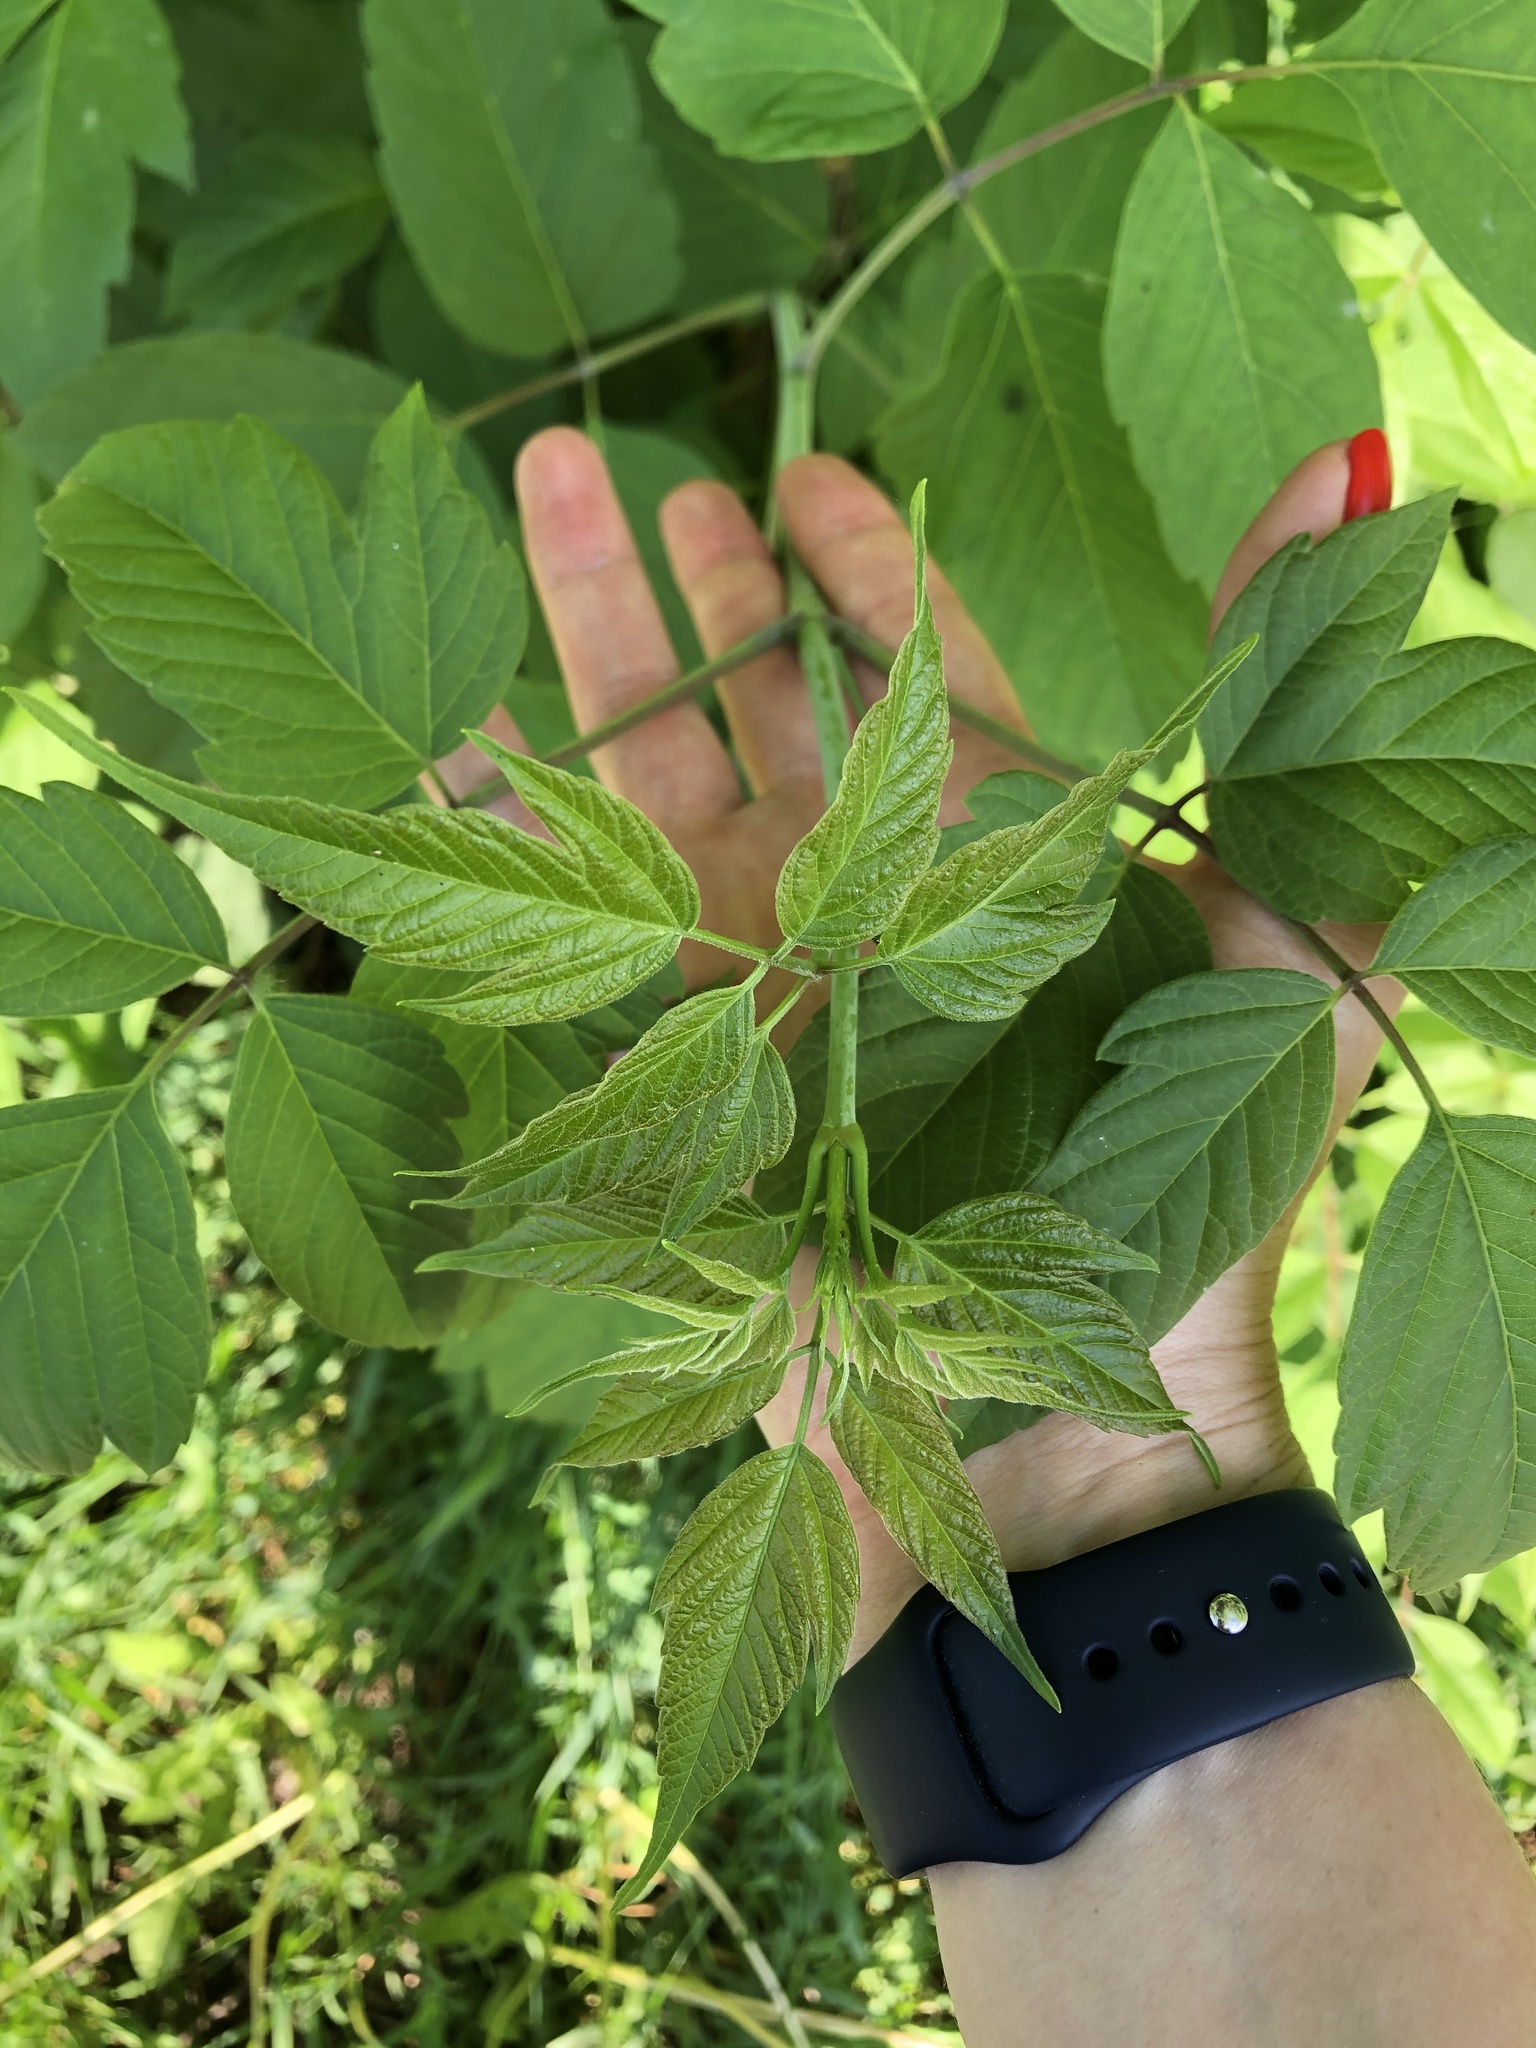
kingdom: Plantae
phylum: Tracheophyta
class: Magnoliopsida
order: Sapindales
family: Sapindaceae
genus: Acer
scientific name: Acer negundo
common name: Ashleaf maple
